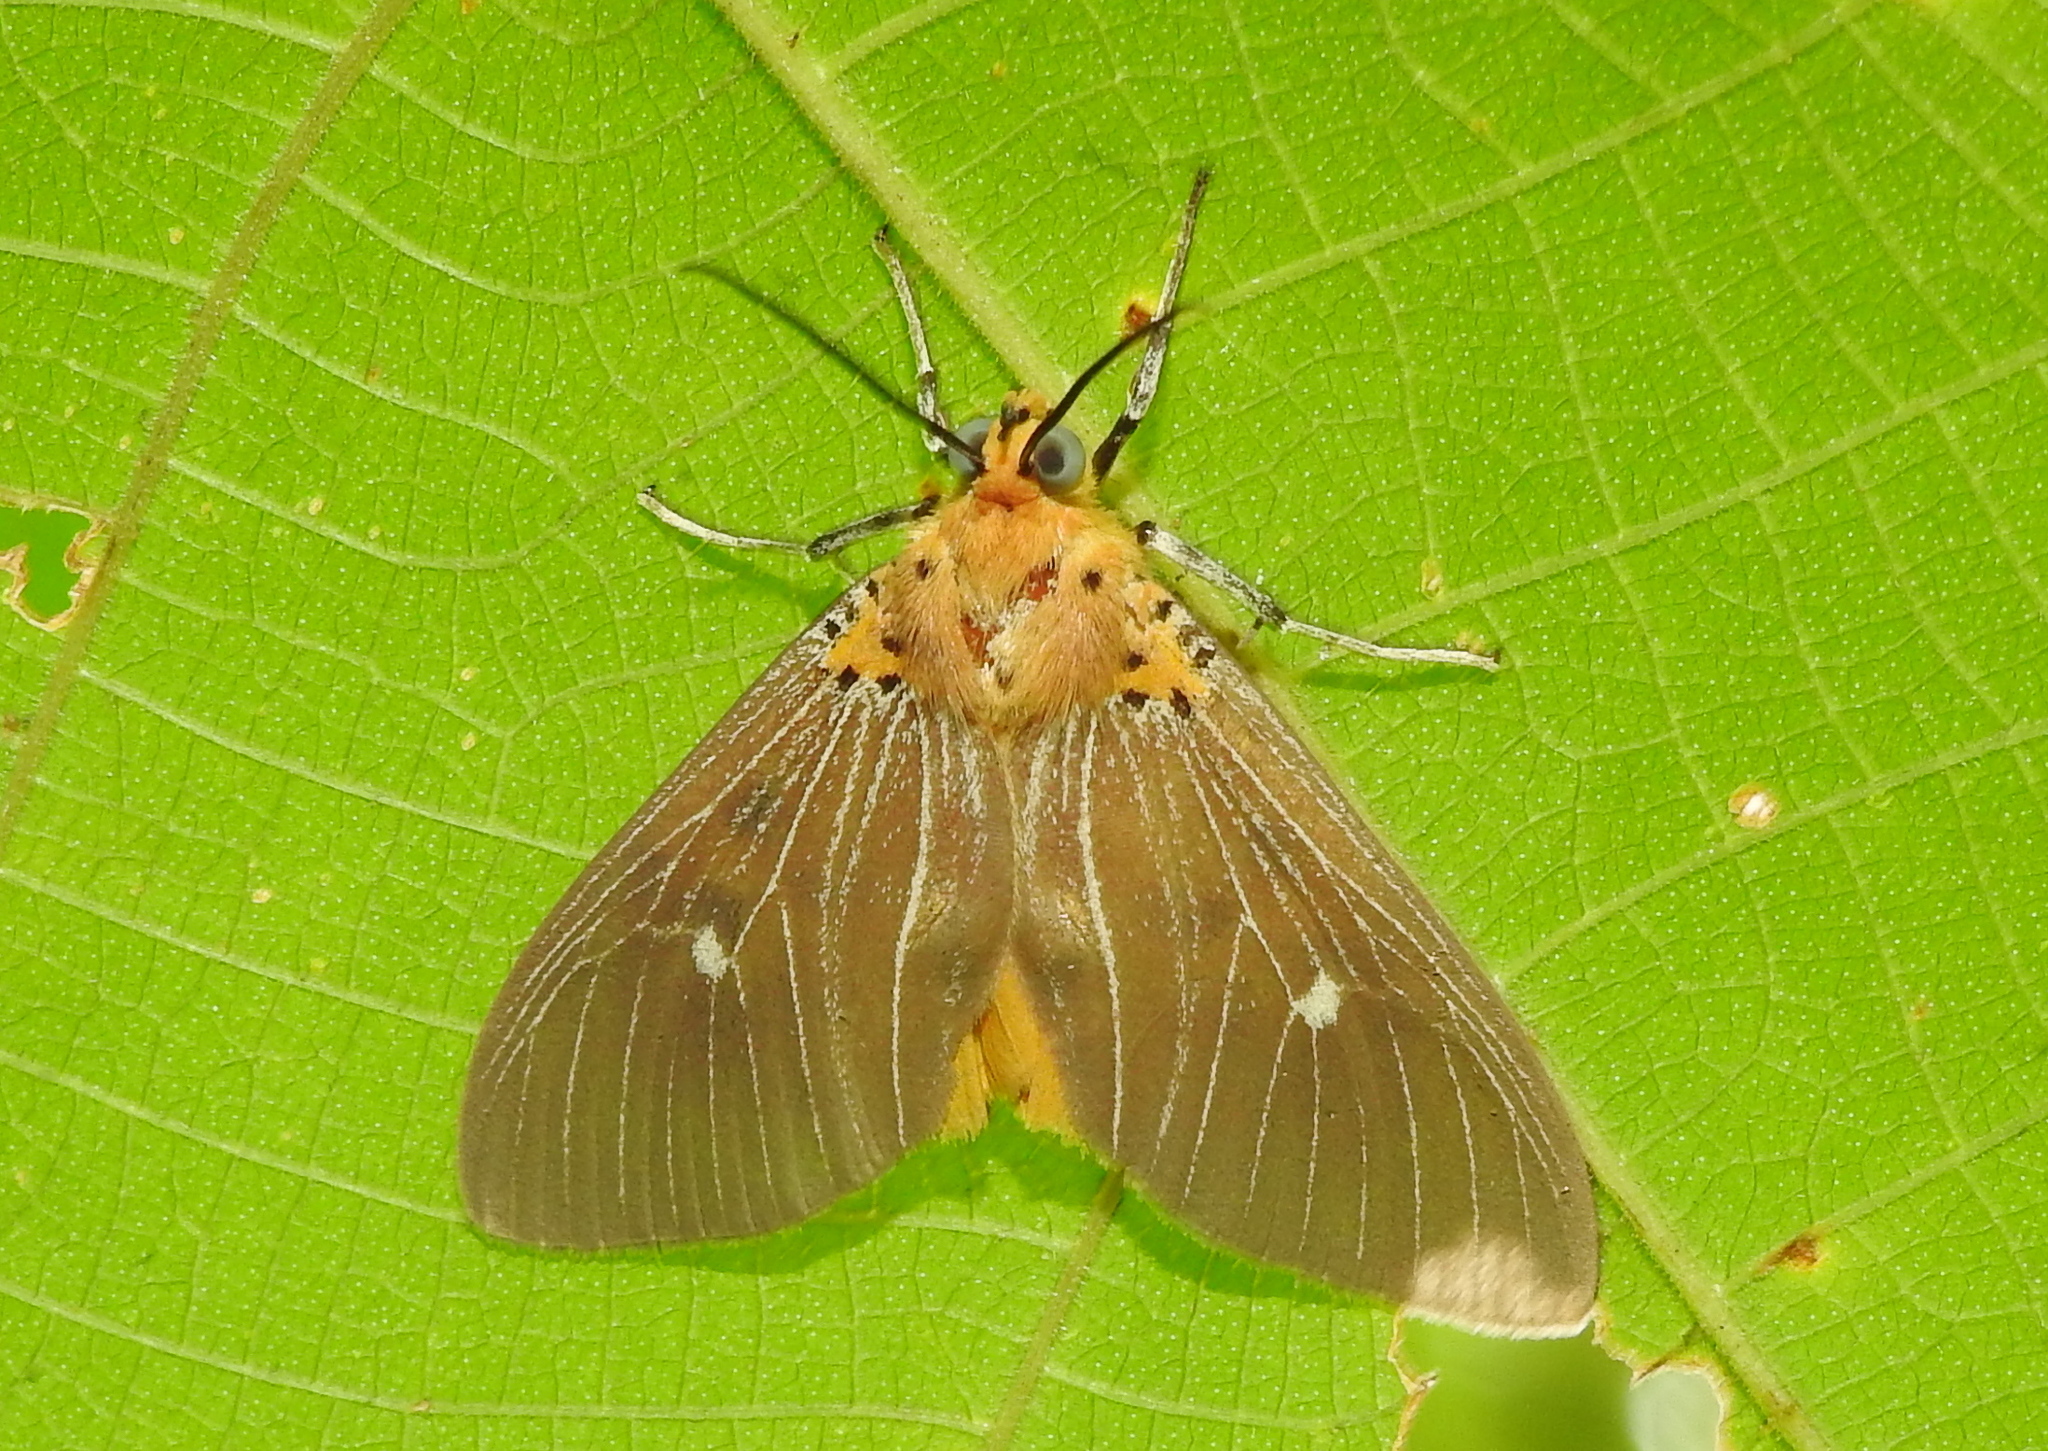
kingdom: Animalia
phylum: Arthropoda
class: Insecta
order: Lepidoptera
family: Erebidae
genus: Asota
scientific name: Asota caricae
